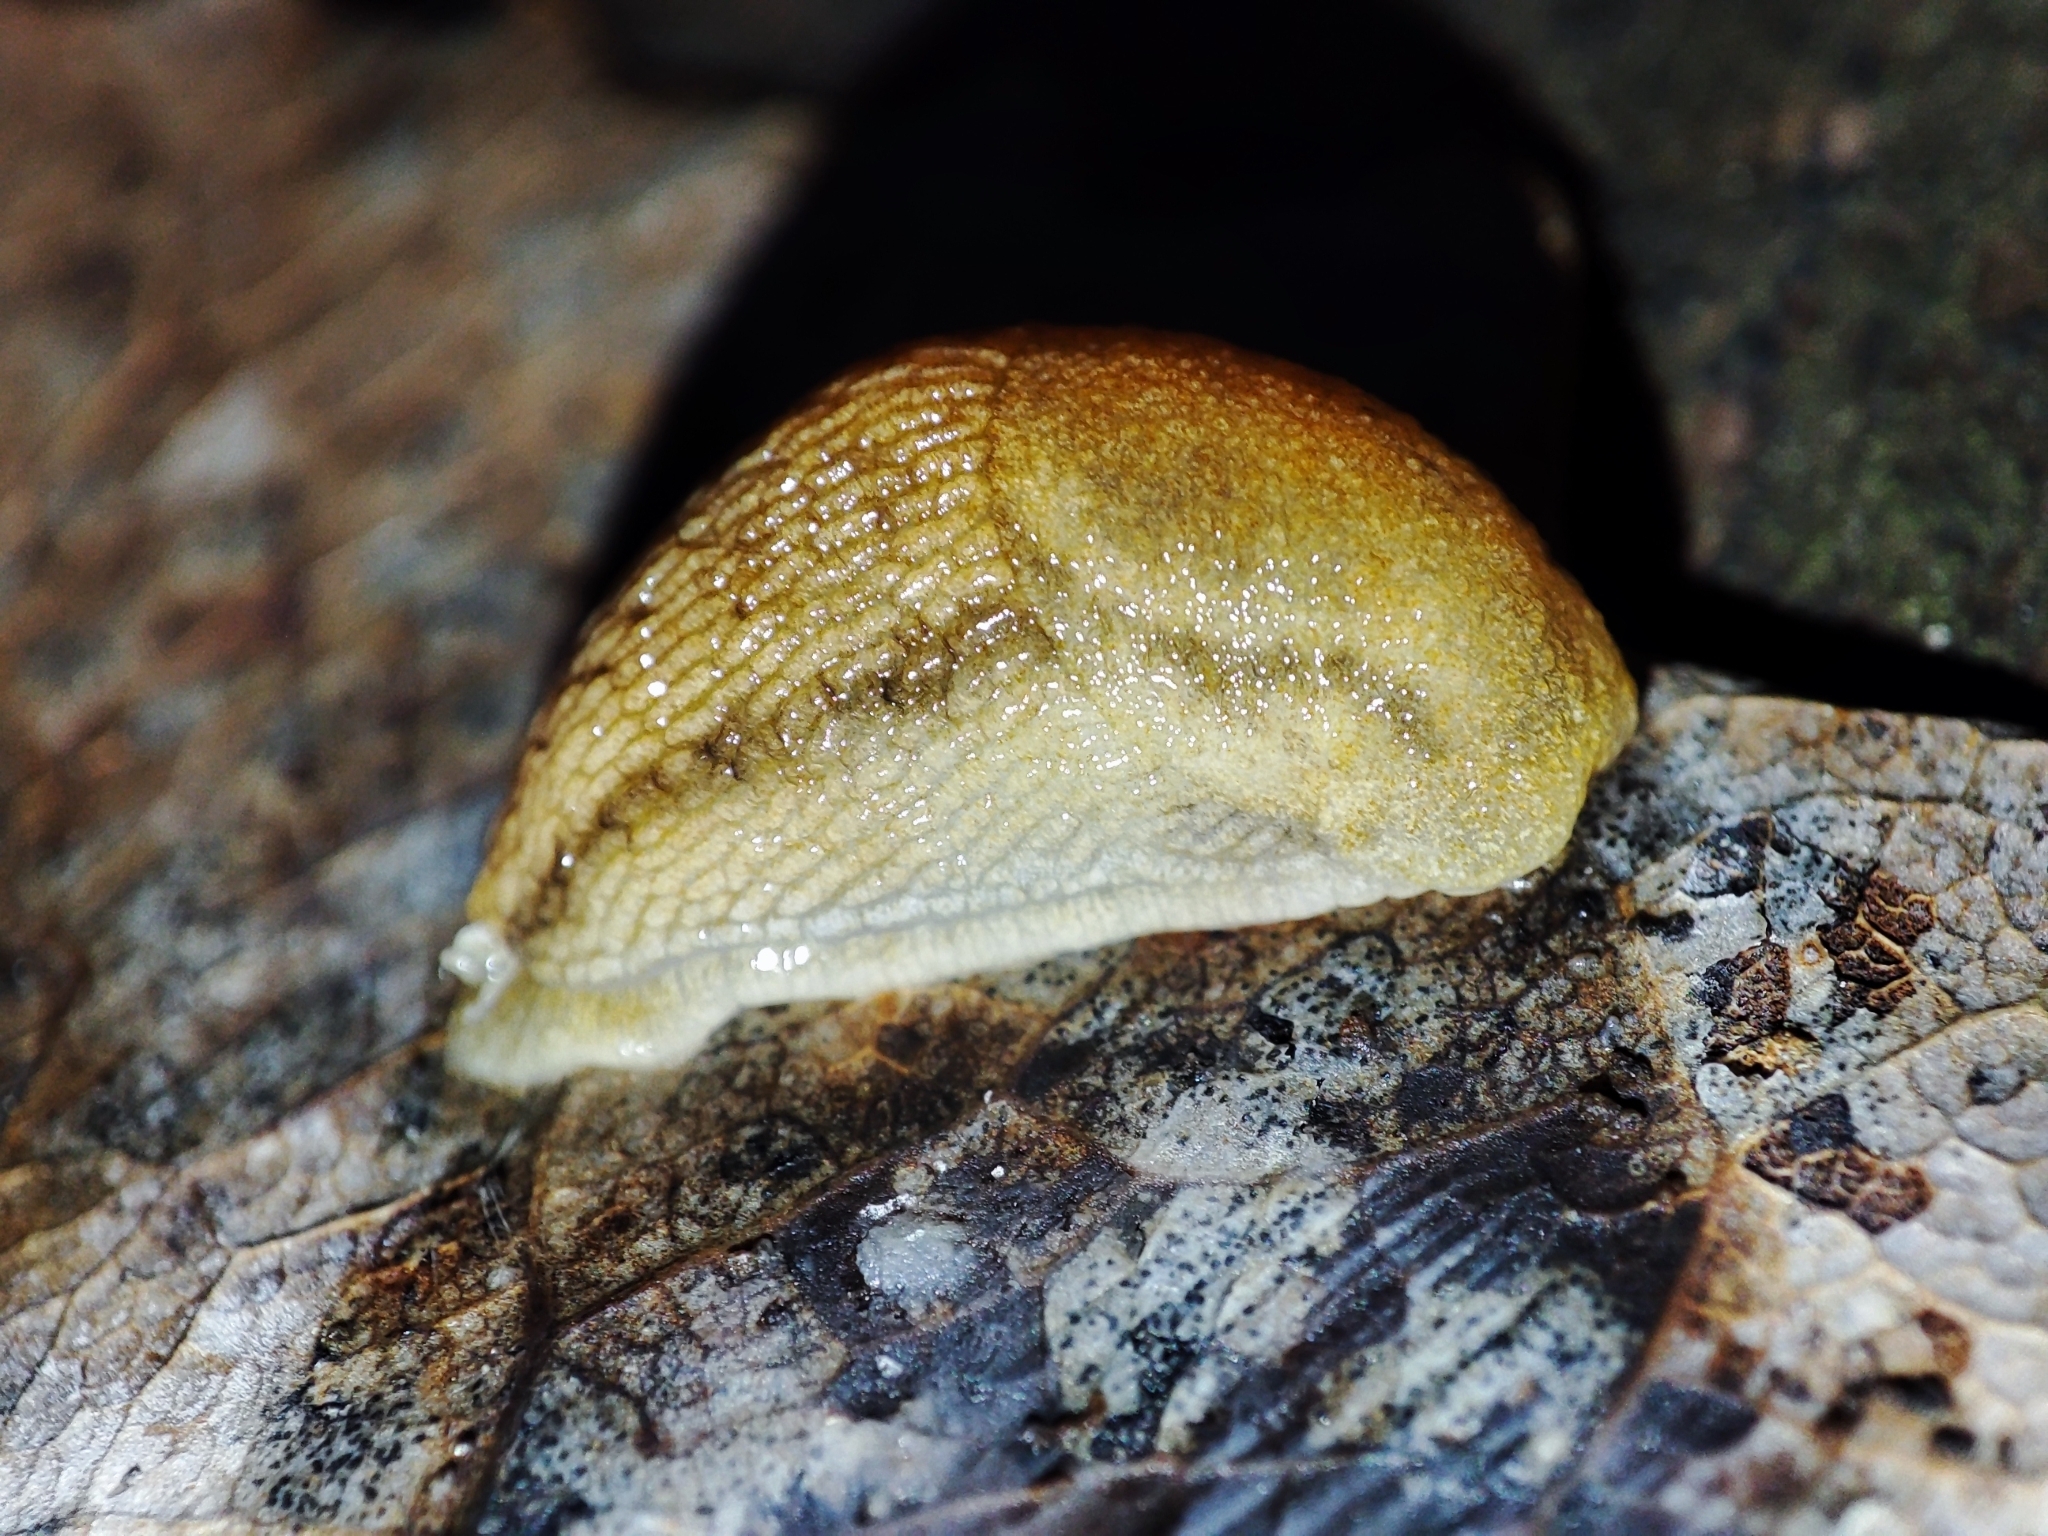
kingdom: Animalia
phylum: Mollusca
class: Gastropoda
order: Stylommatophora
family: Arionidae
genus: Arion
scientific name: Arion fuscus
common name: Northern dusky slug
